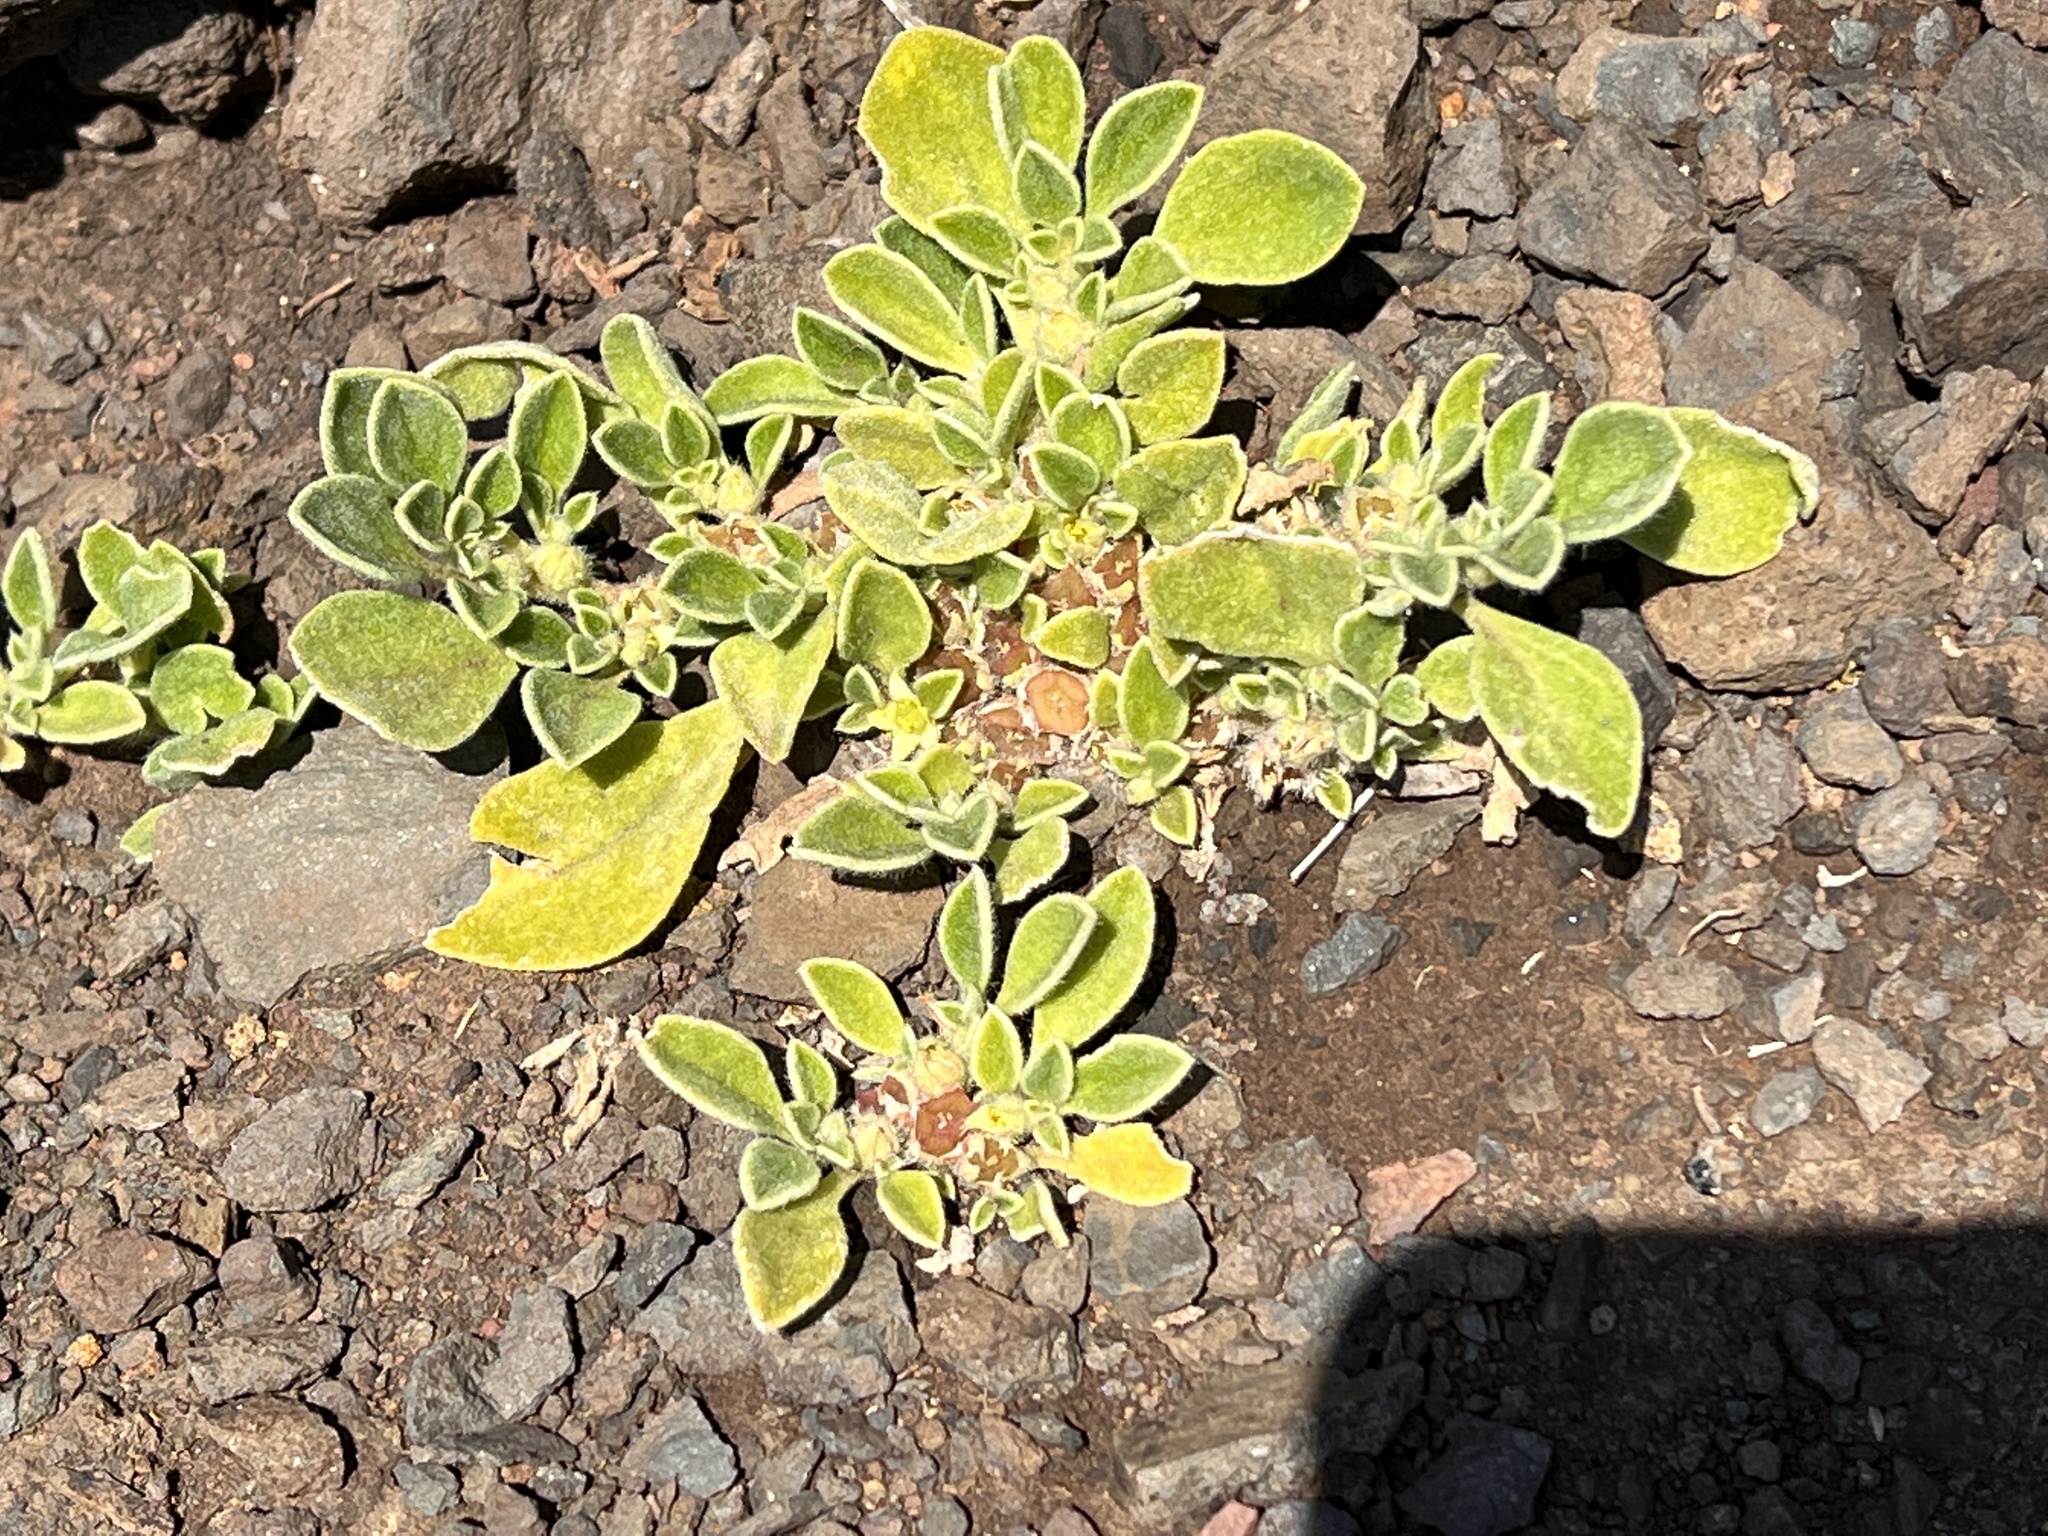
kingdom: Plantae
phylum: Tracheophyta
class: Magnoliopsida
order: Caryophyllales
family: Aizoaceae
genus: Aizoon
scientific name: Aizoon canariense
